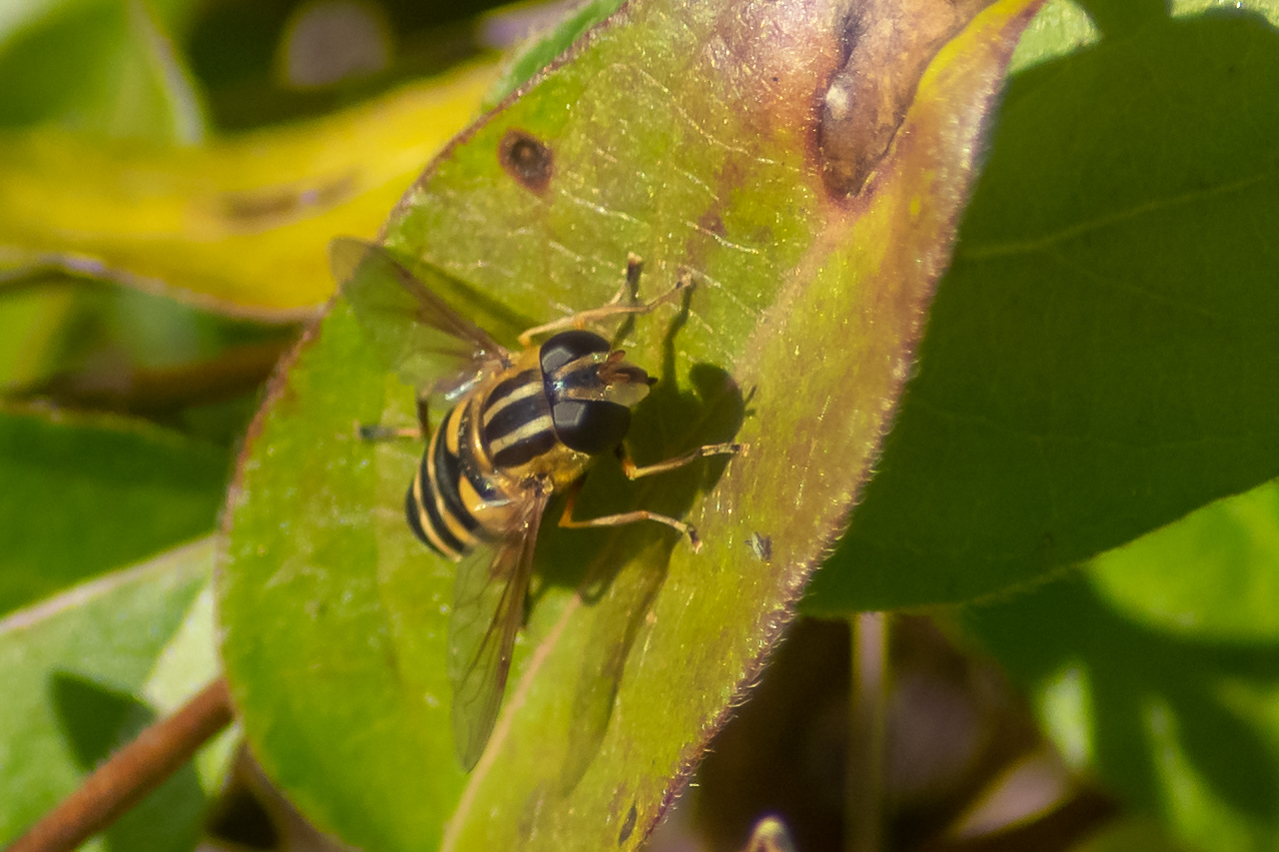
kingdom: Animalia
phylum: Arthropoda
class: Insecta
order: Diptera
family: Syrphidae
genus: Helophilus
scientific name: Helophilus fasciatus
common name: Narrow-headed marsh fly
